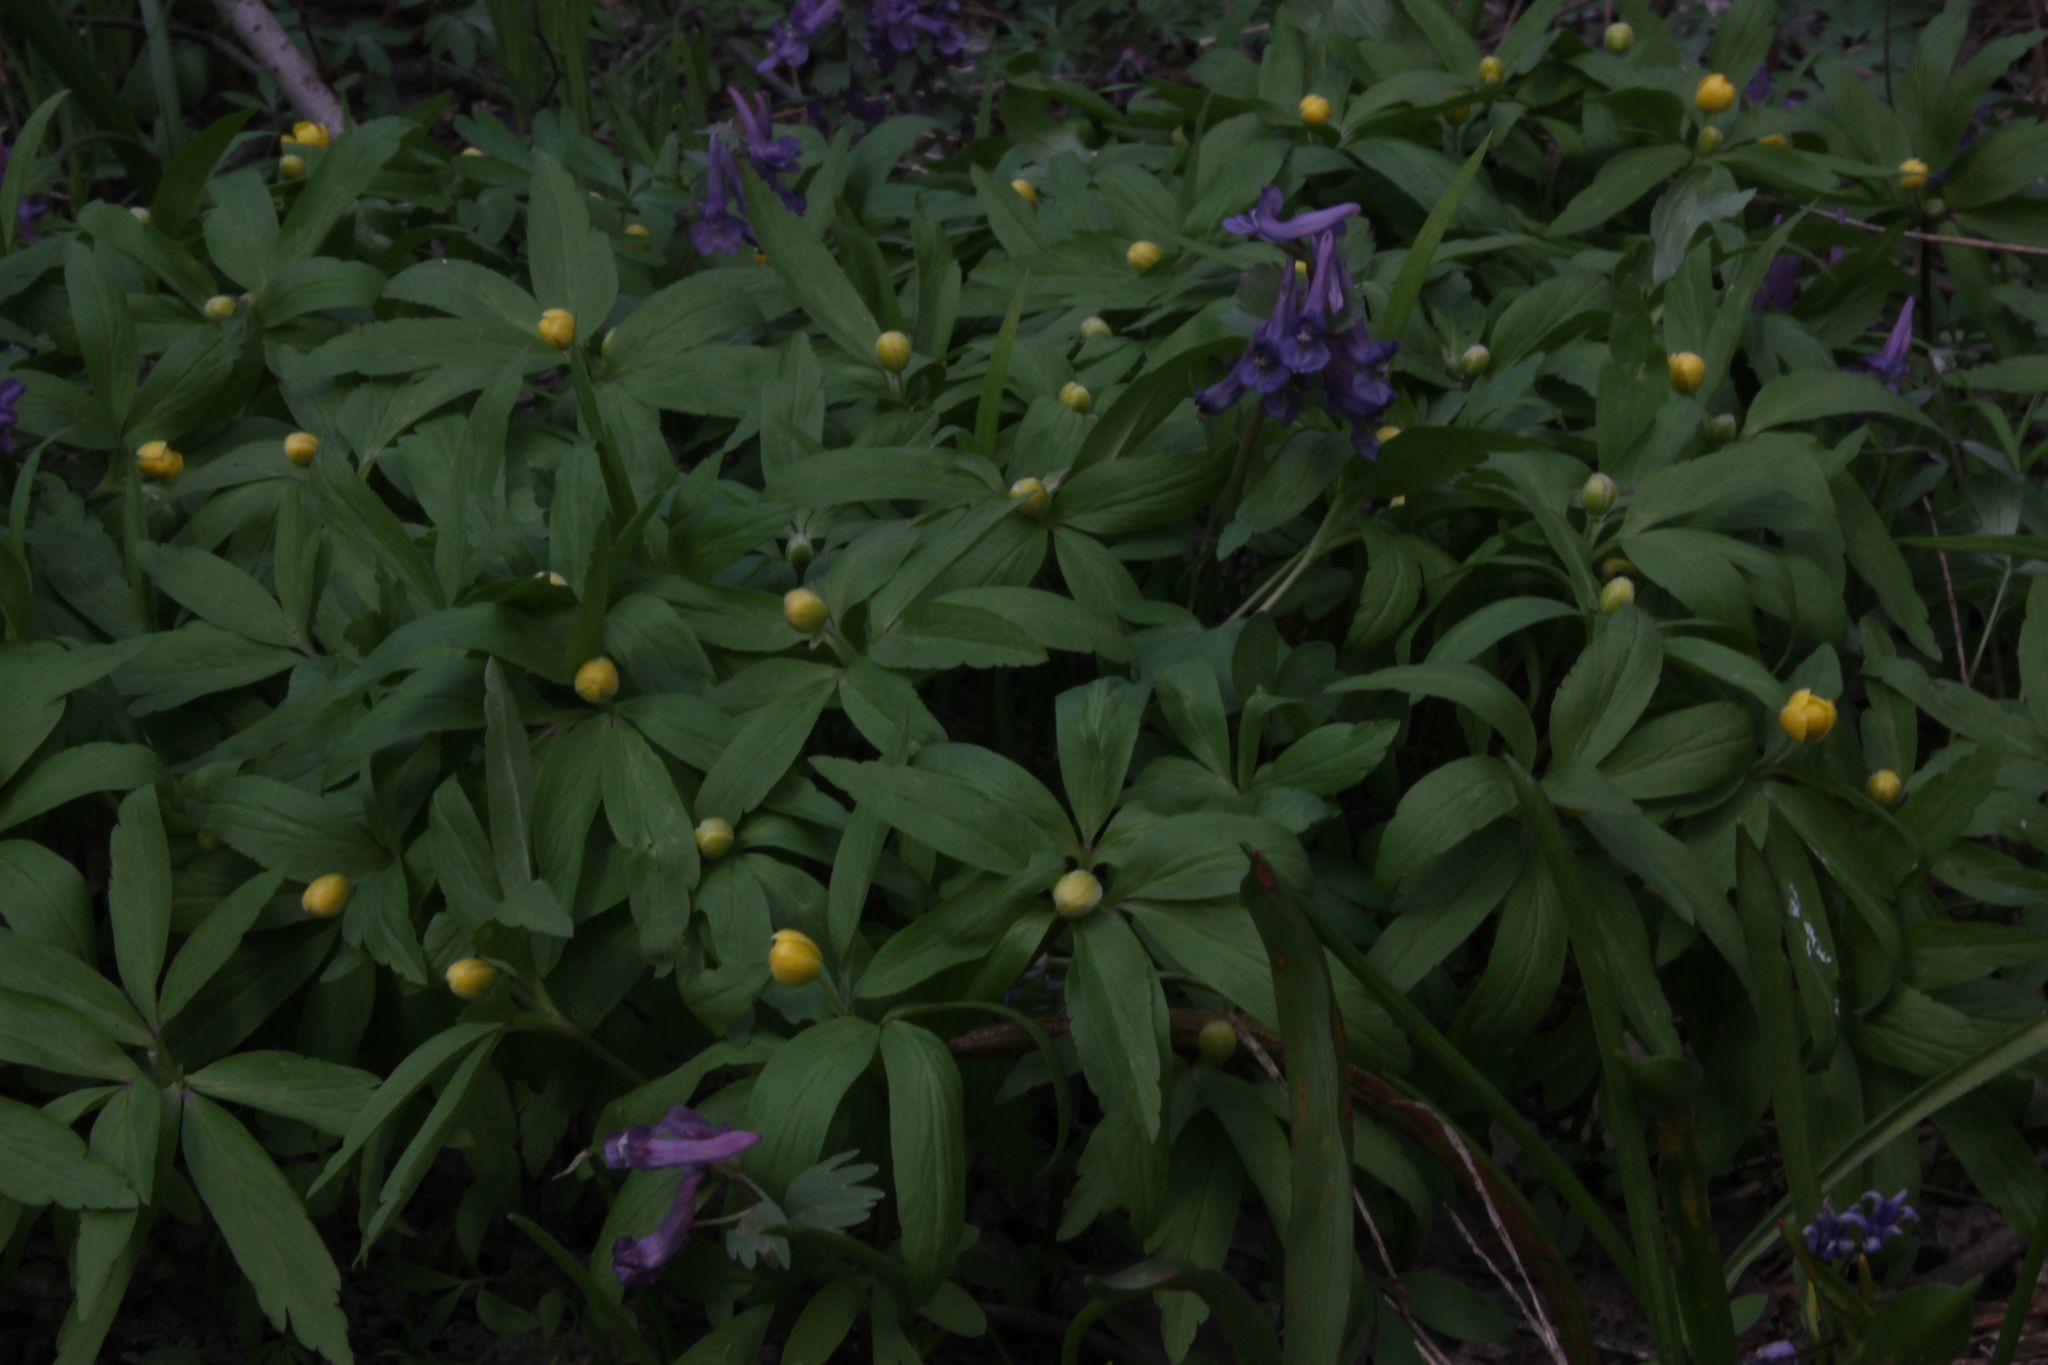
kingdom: Plantae
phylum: Tracheophyta
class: Magnoliopsida
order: Ranunculales
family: Ranunculaceae
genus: Anemone
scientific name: Anemone ranunculoides
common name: Yellow anemone
